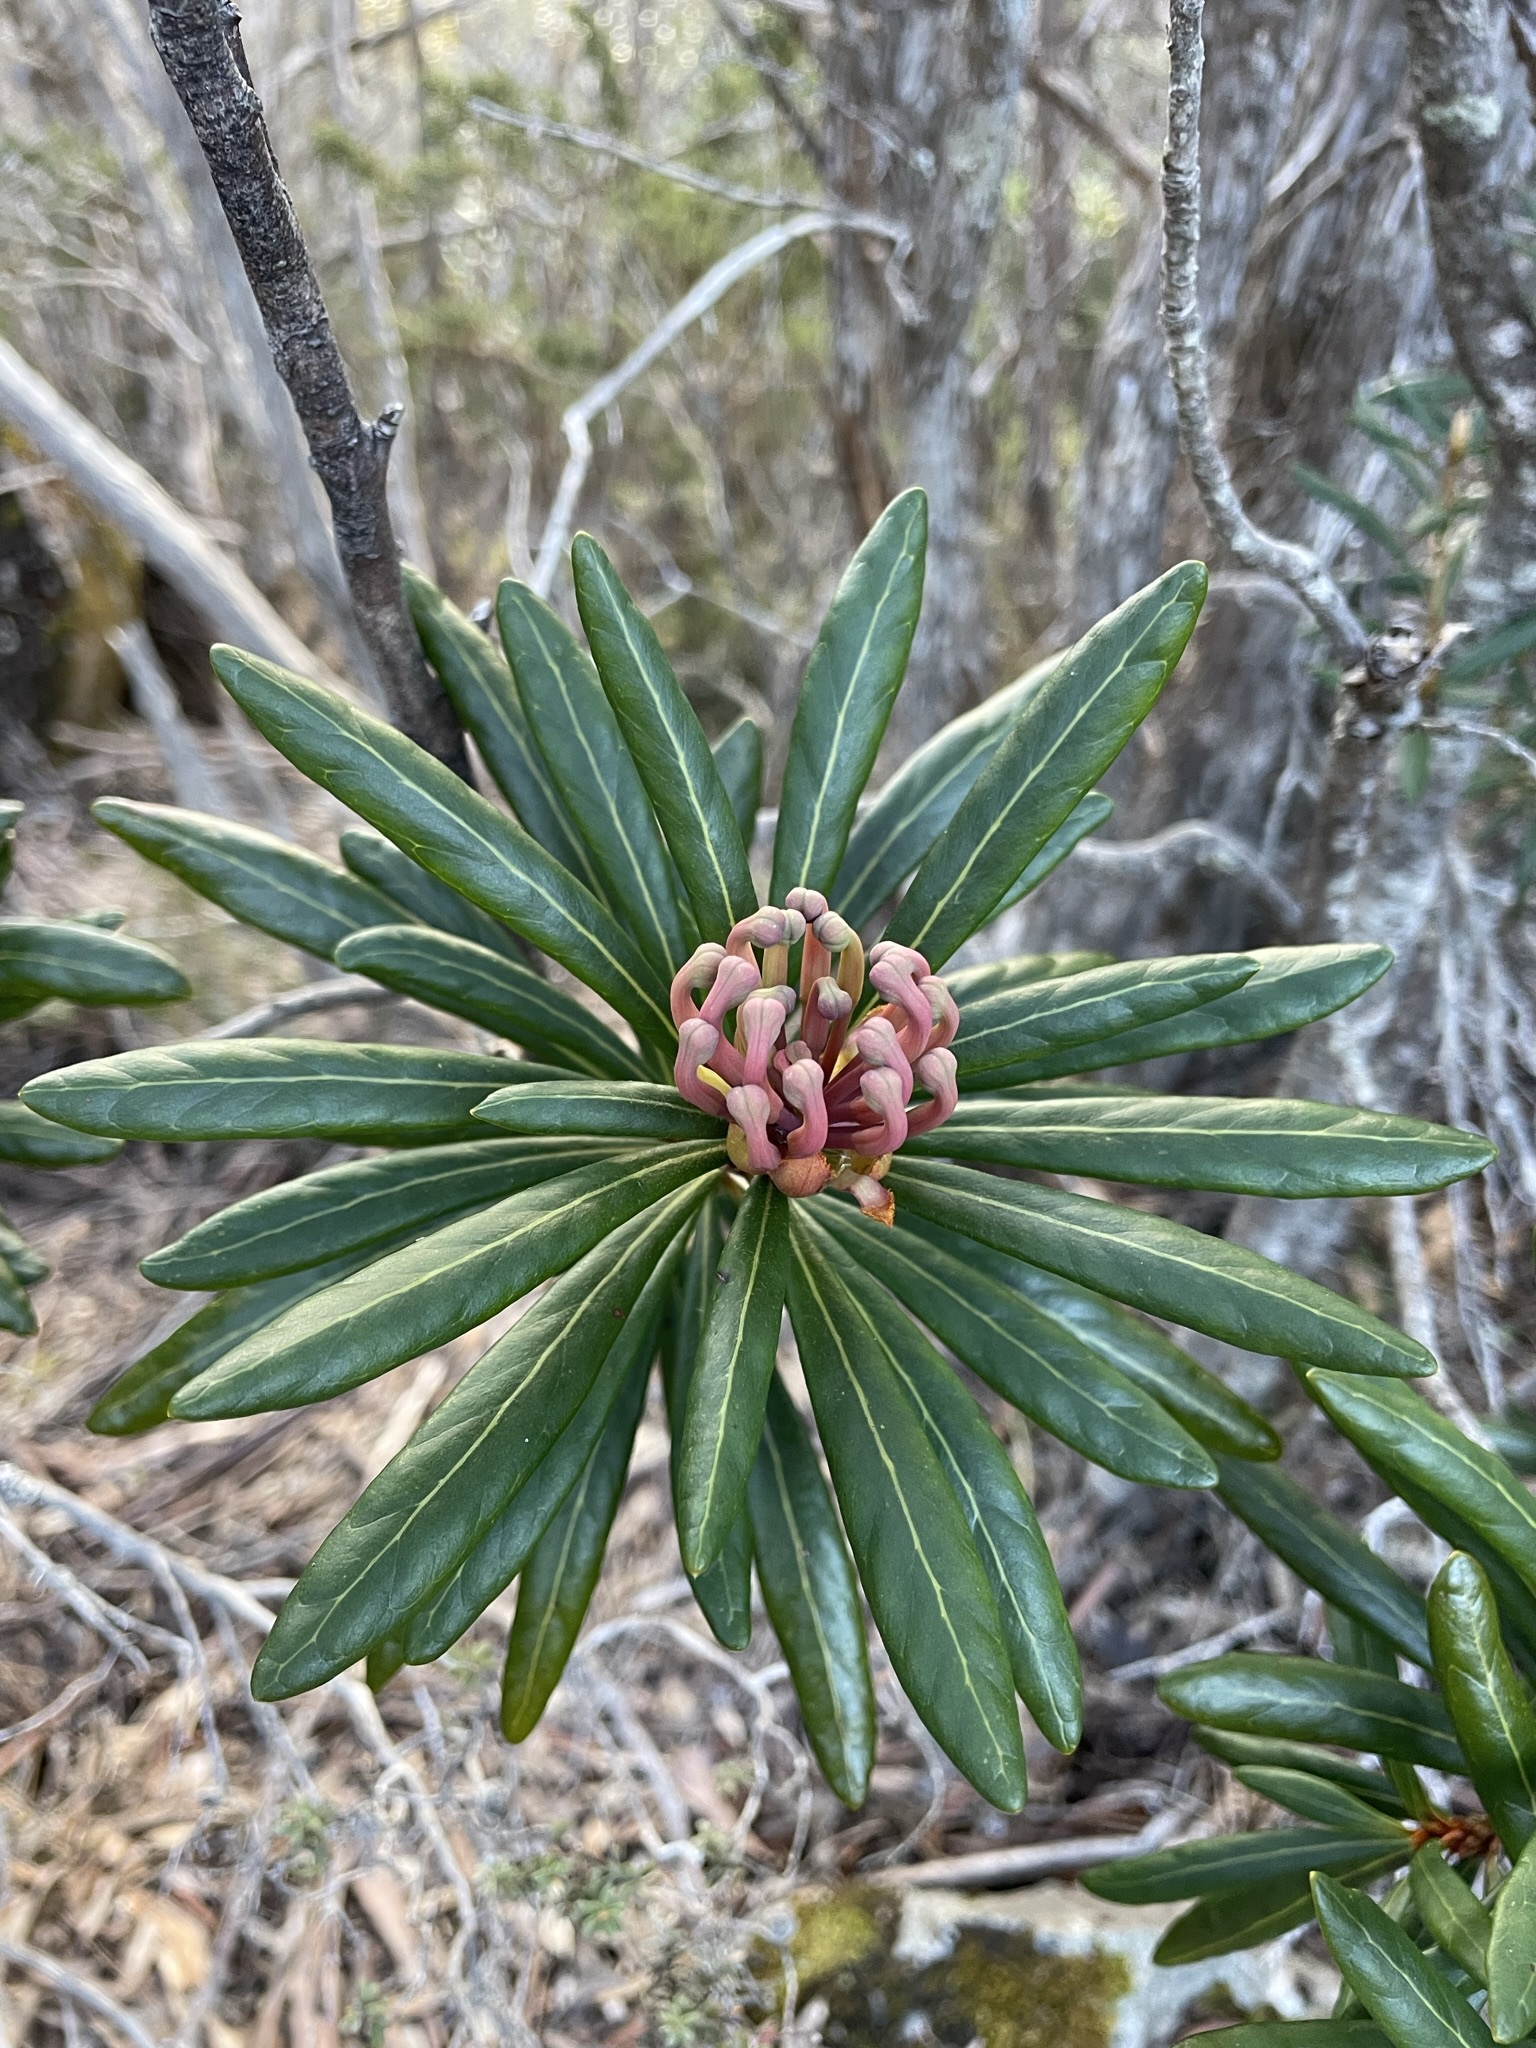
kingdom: Plantae
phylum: Tracheophyta
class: Magnoliopsida
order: Proteales
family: Proteaceae
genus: Telopea
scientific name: Telopea truncata
